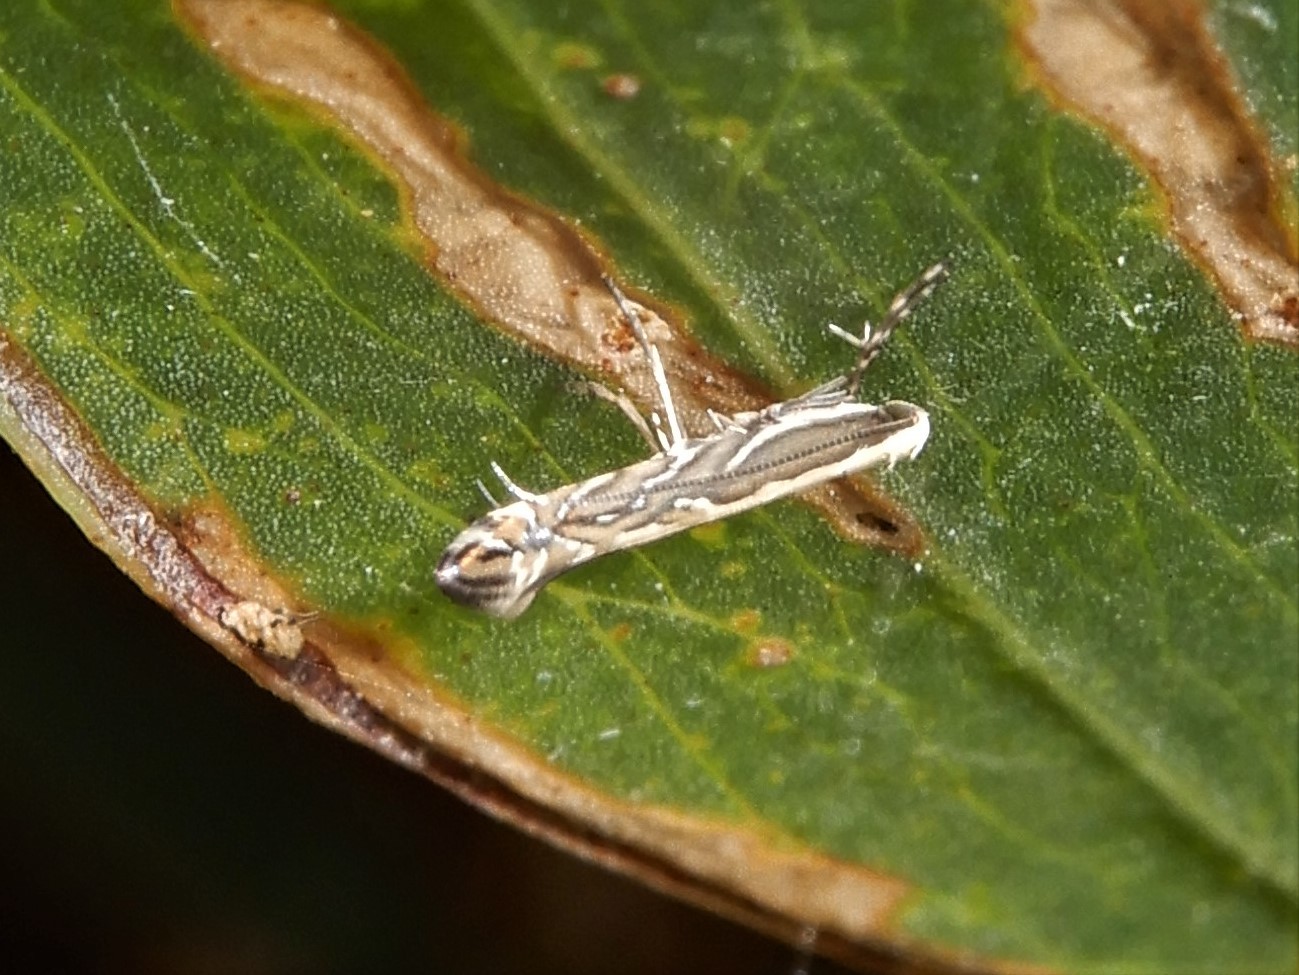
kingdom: Animalia
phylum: Arthropoda
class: Insecta
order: Lepidoptera
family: Gracillariidae
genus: Parectopa
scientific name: Parectopa alysidota
